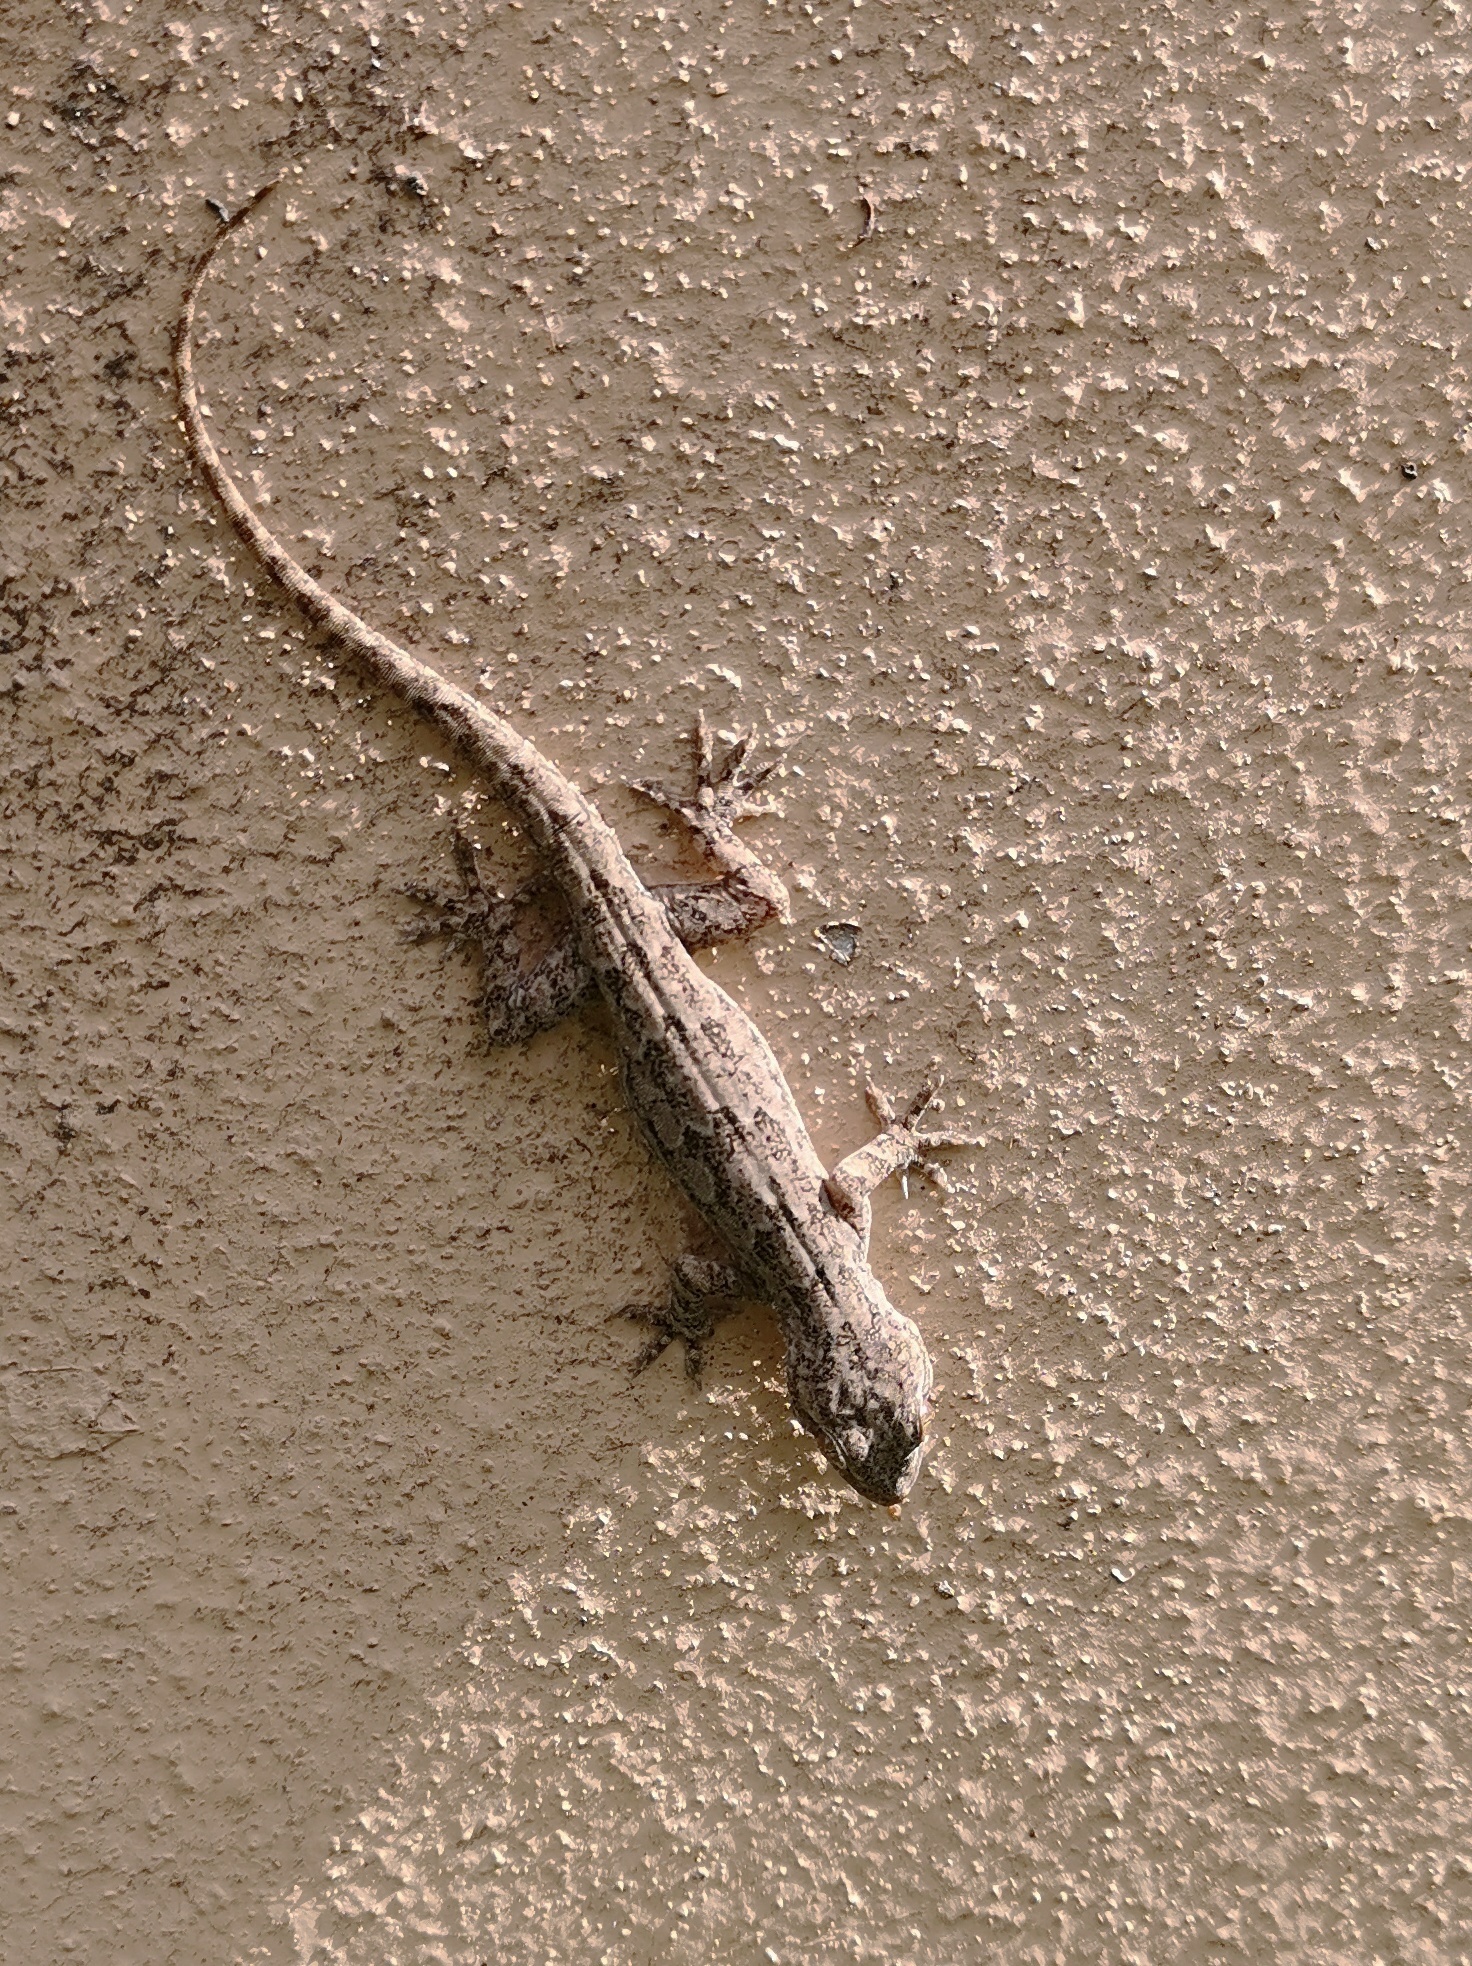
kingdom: Animalia
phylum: Chordata
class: Squamata
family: Gekkonidae
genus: Hemidactylus
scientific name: Hemidactylus leschenaultii
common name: Leschenault's leaf-toed gecko
